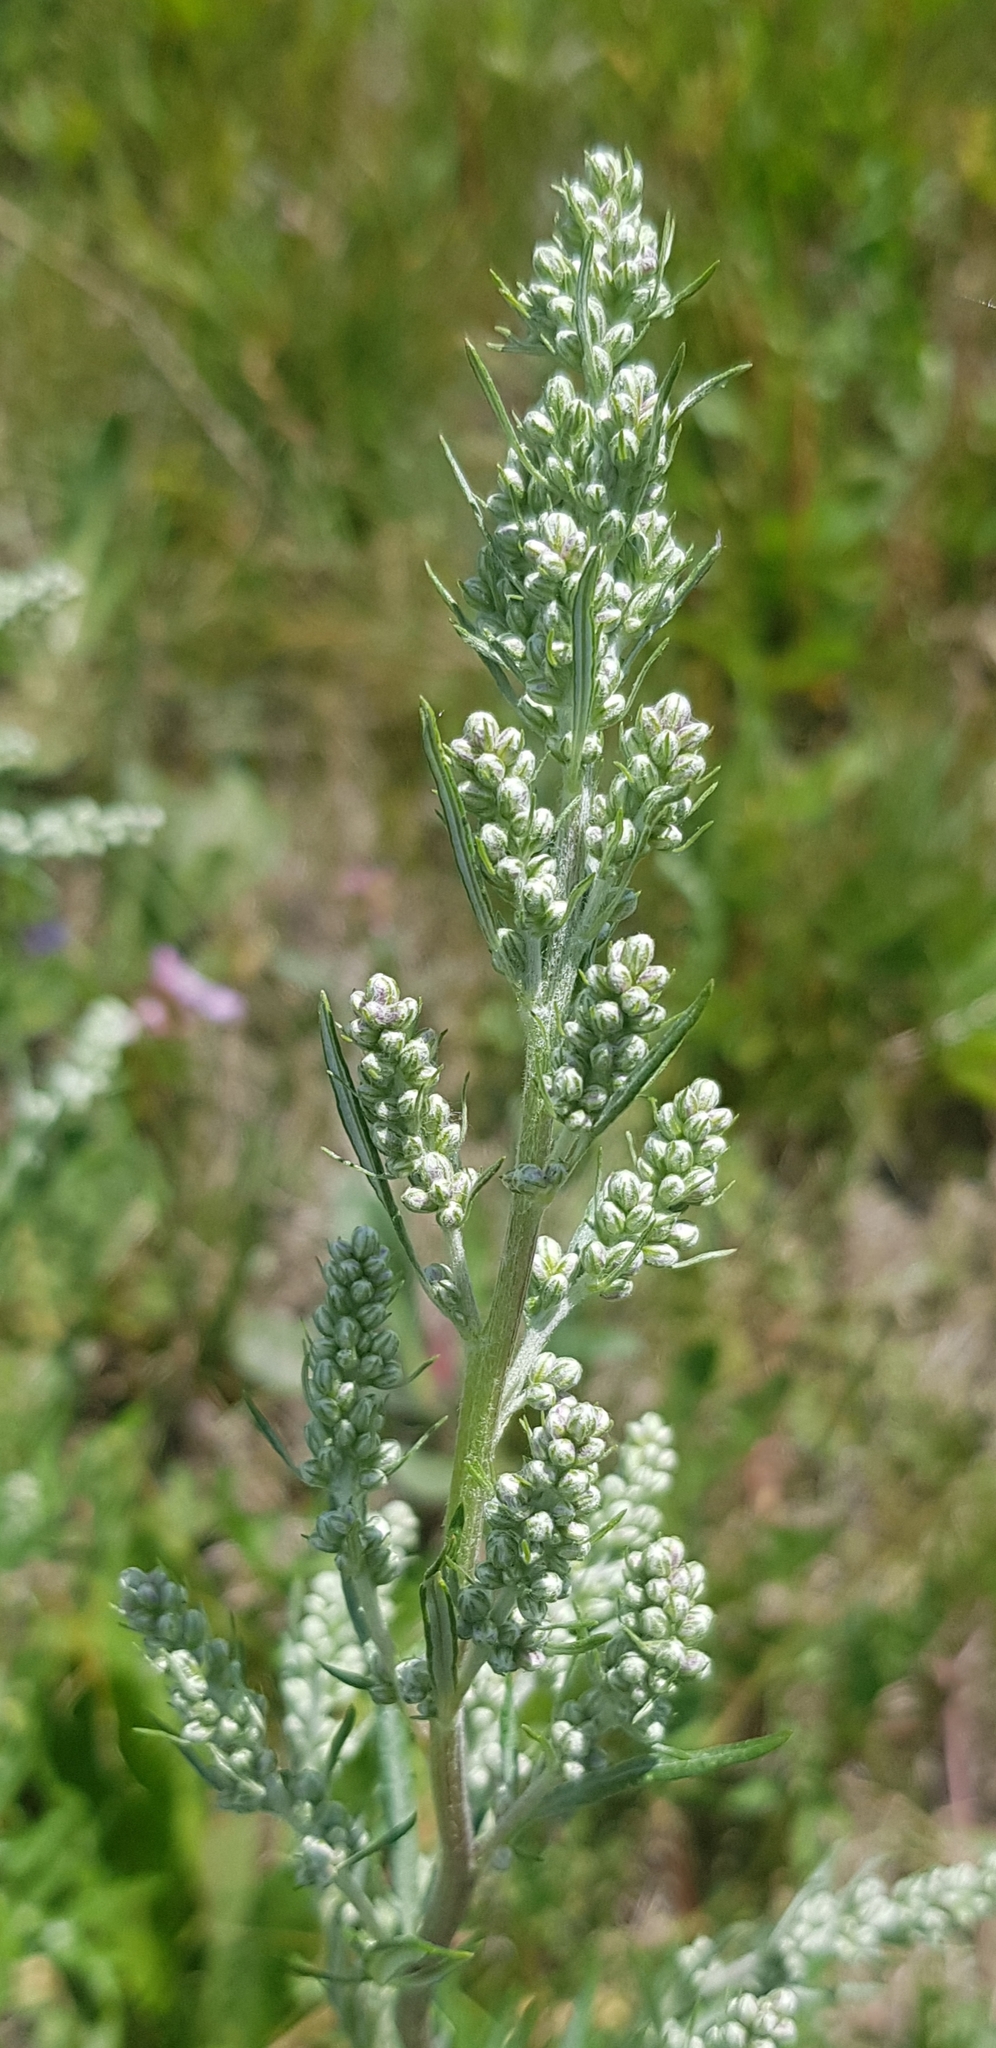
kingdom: Plantae
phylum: Tracheophyta
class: Magnoliopsida
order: Asterales
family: Asteraceae
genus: Artemisia
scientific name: Artemisia vulgaris
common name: Mugwort
